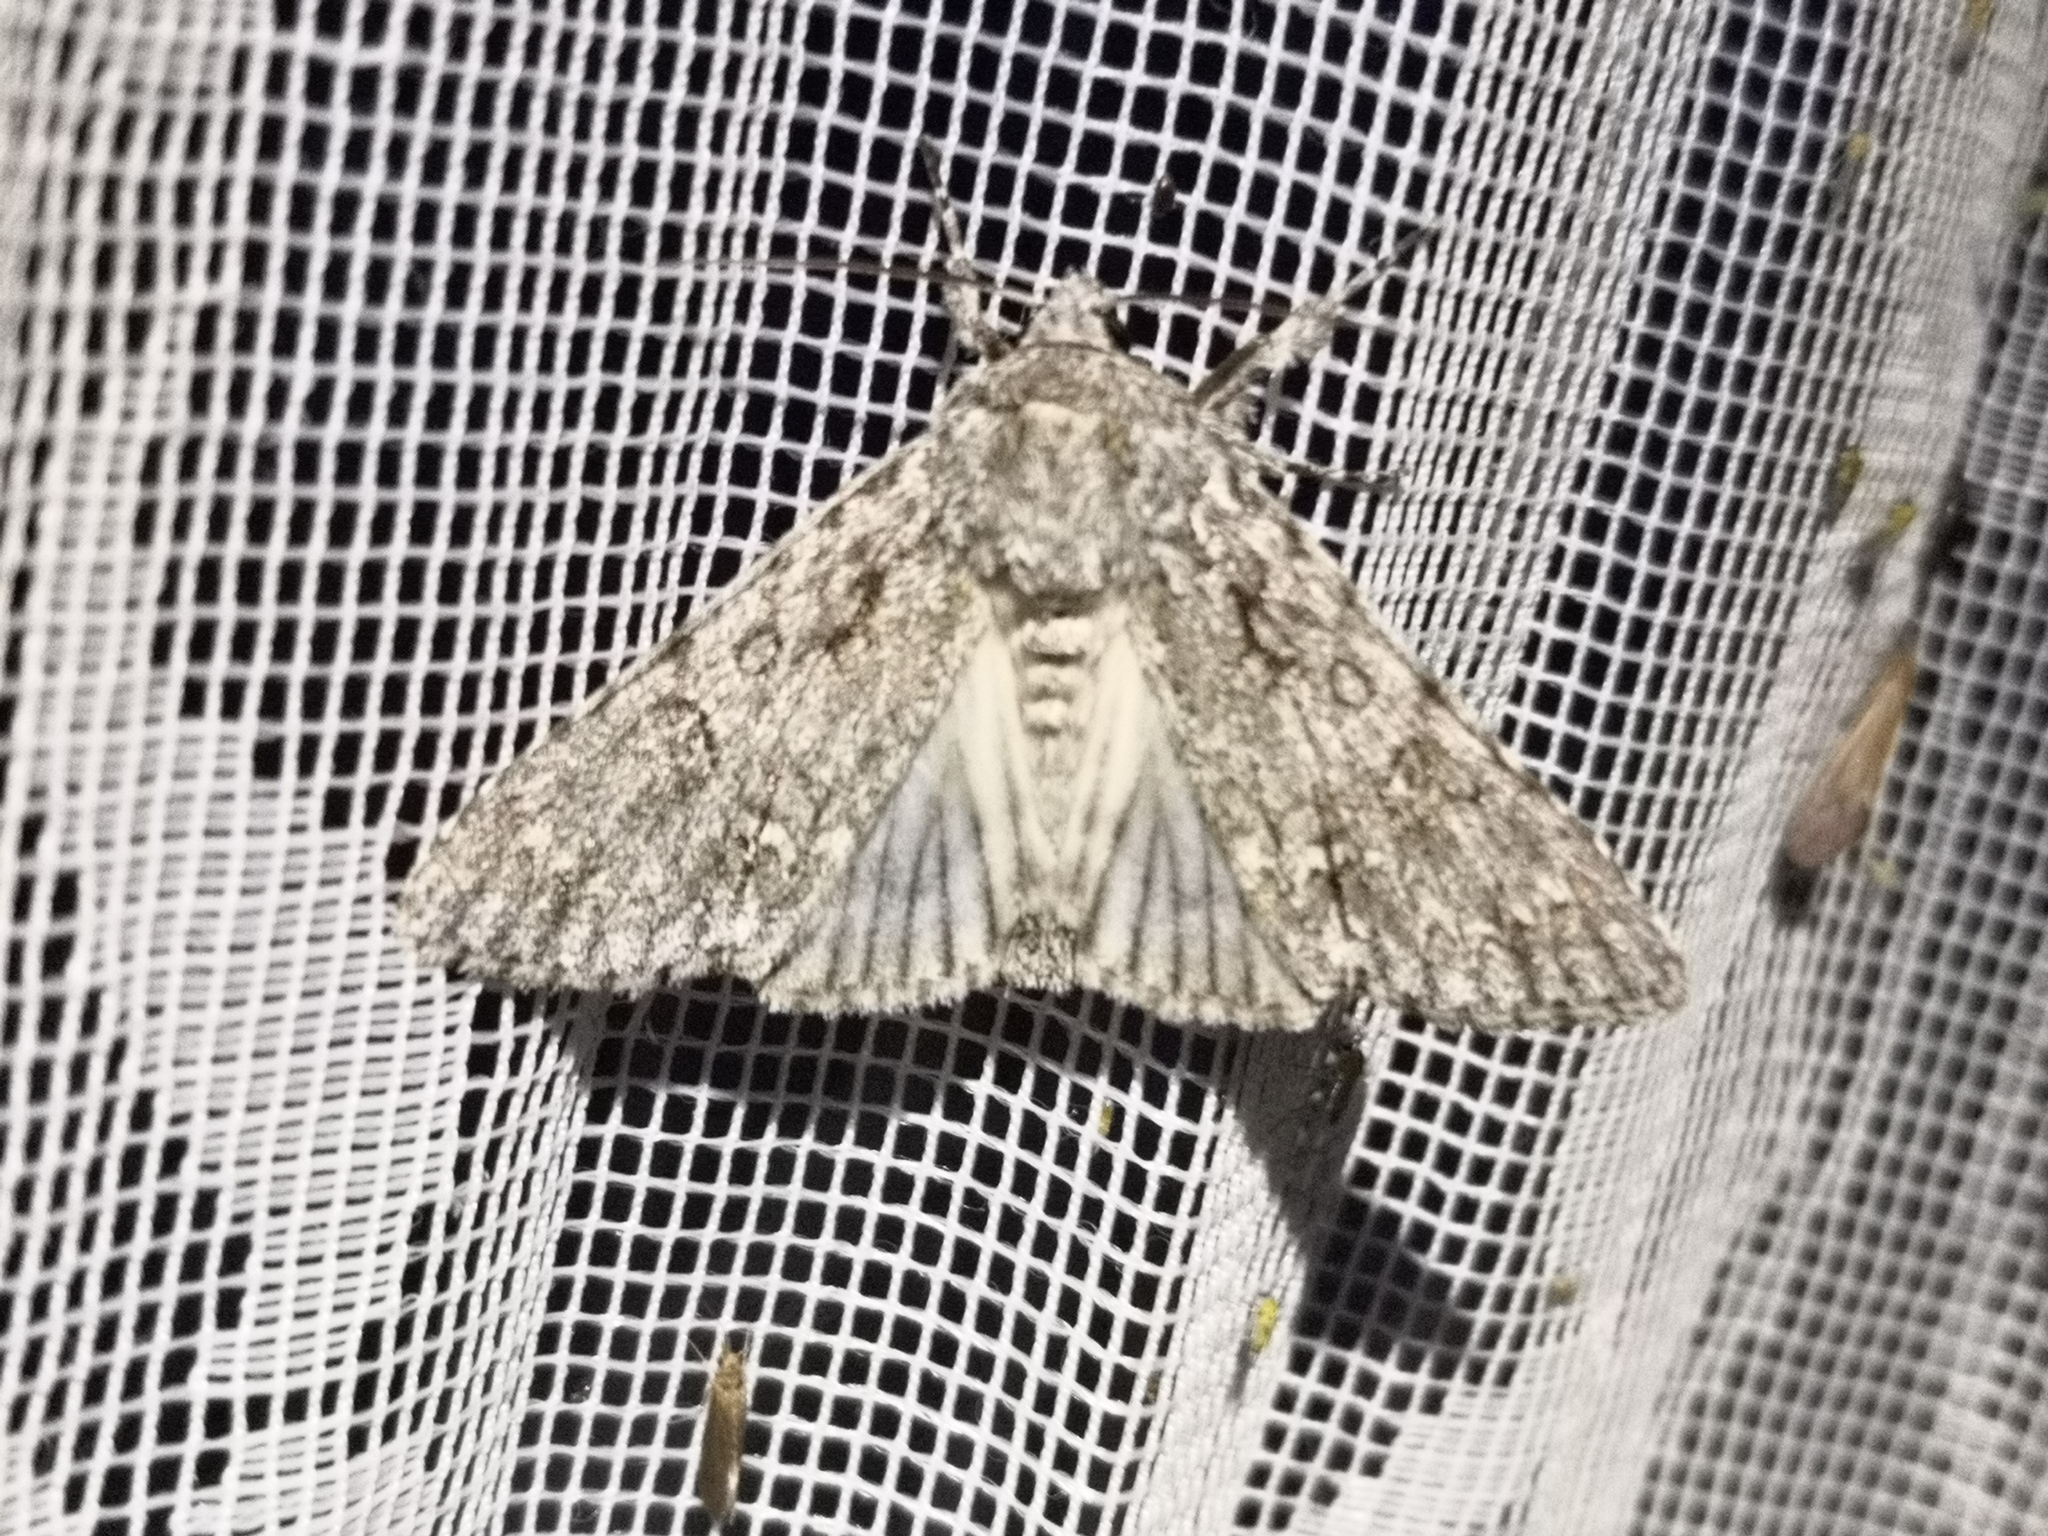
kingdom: Animalia
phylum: Arthropoda
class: Insecta
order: Lepidoptera
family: Noctuidae
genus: Acronicta
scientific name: Acronicta aceris
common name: Sycamore
